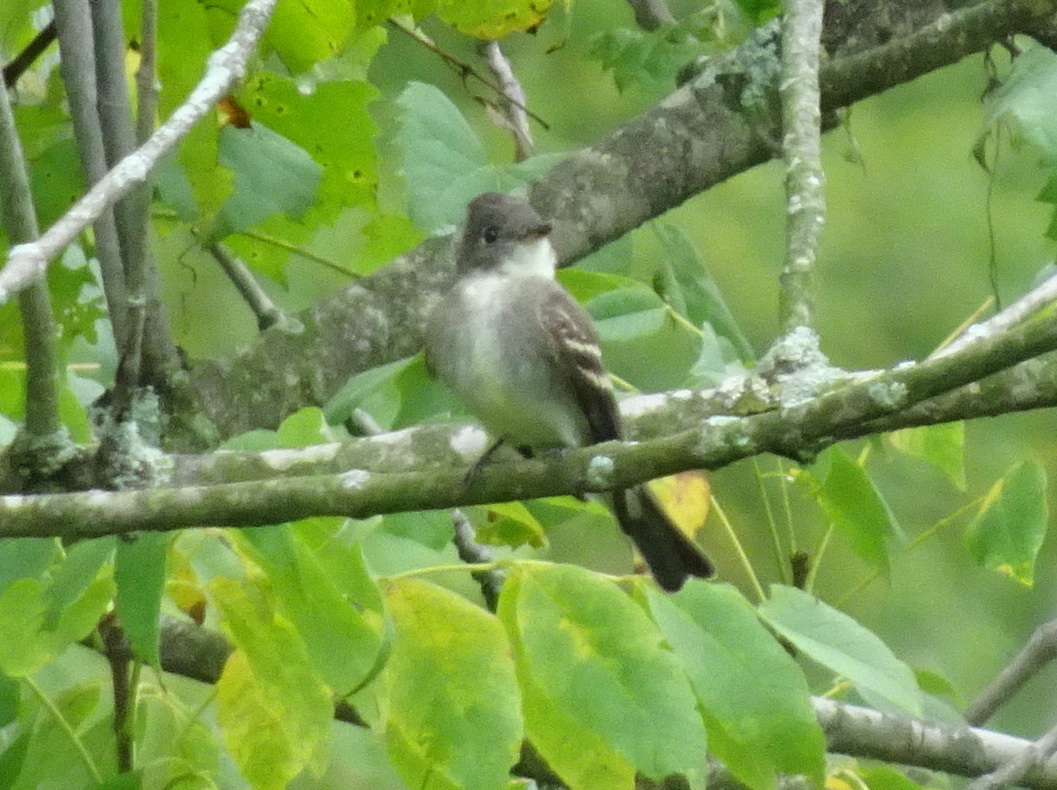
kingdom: Animalia
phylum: Chordata
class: Aves
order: Passeriformes
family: Tyrannidae
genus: Contopus
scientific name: Contopus virens
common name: Eastern wood-pewee
